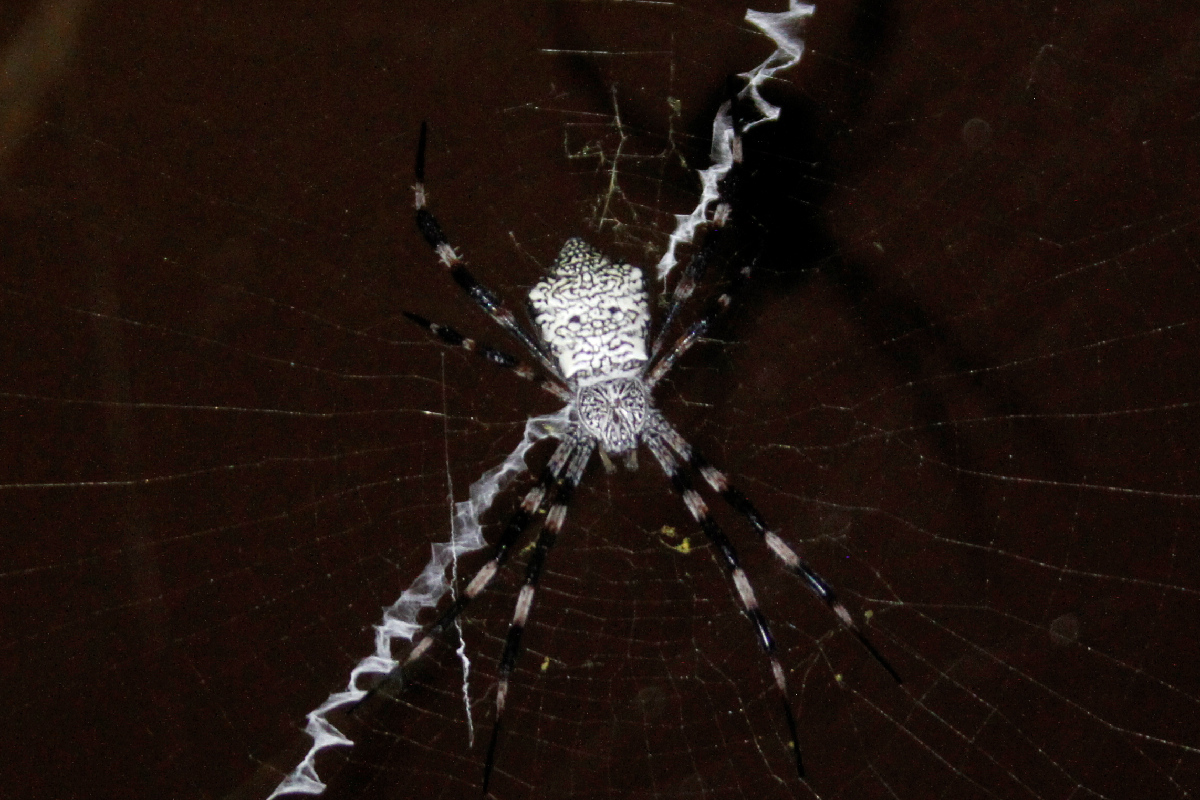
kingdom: Animalia
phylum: Arthropoda
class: Arachnida
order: Araneae
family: Araneidae
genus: Argiope
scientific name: Argiope appensa
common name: Garden spider
